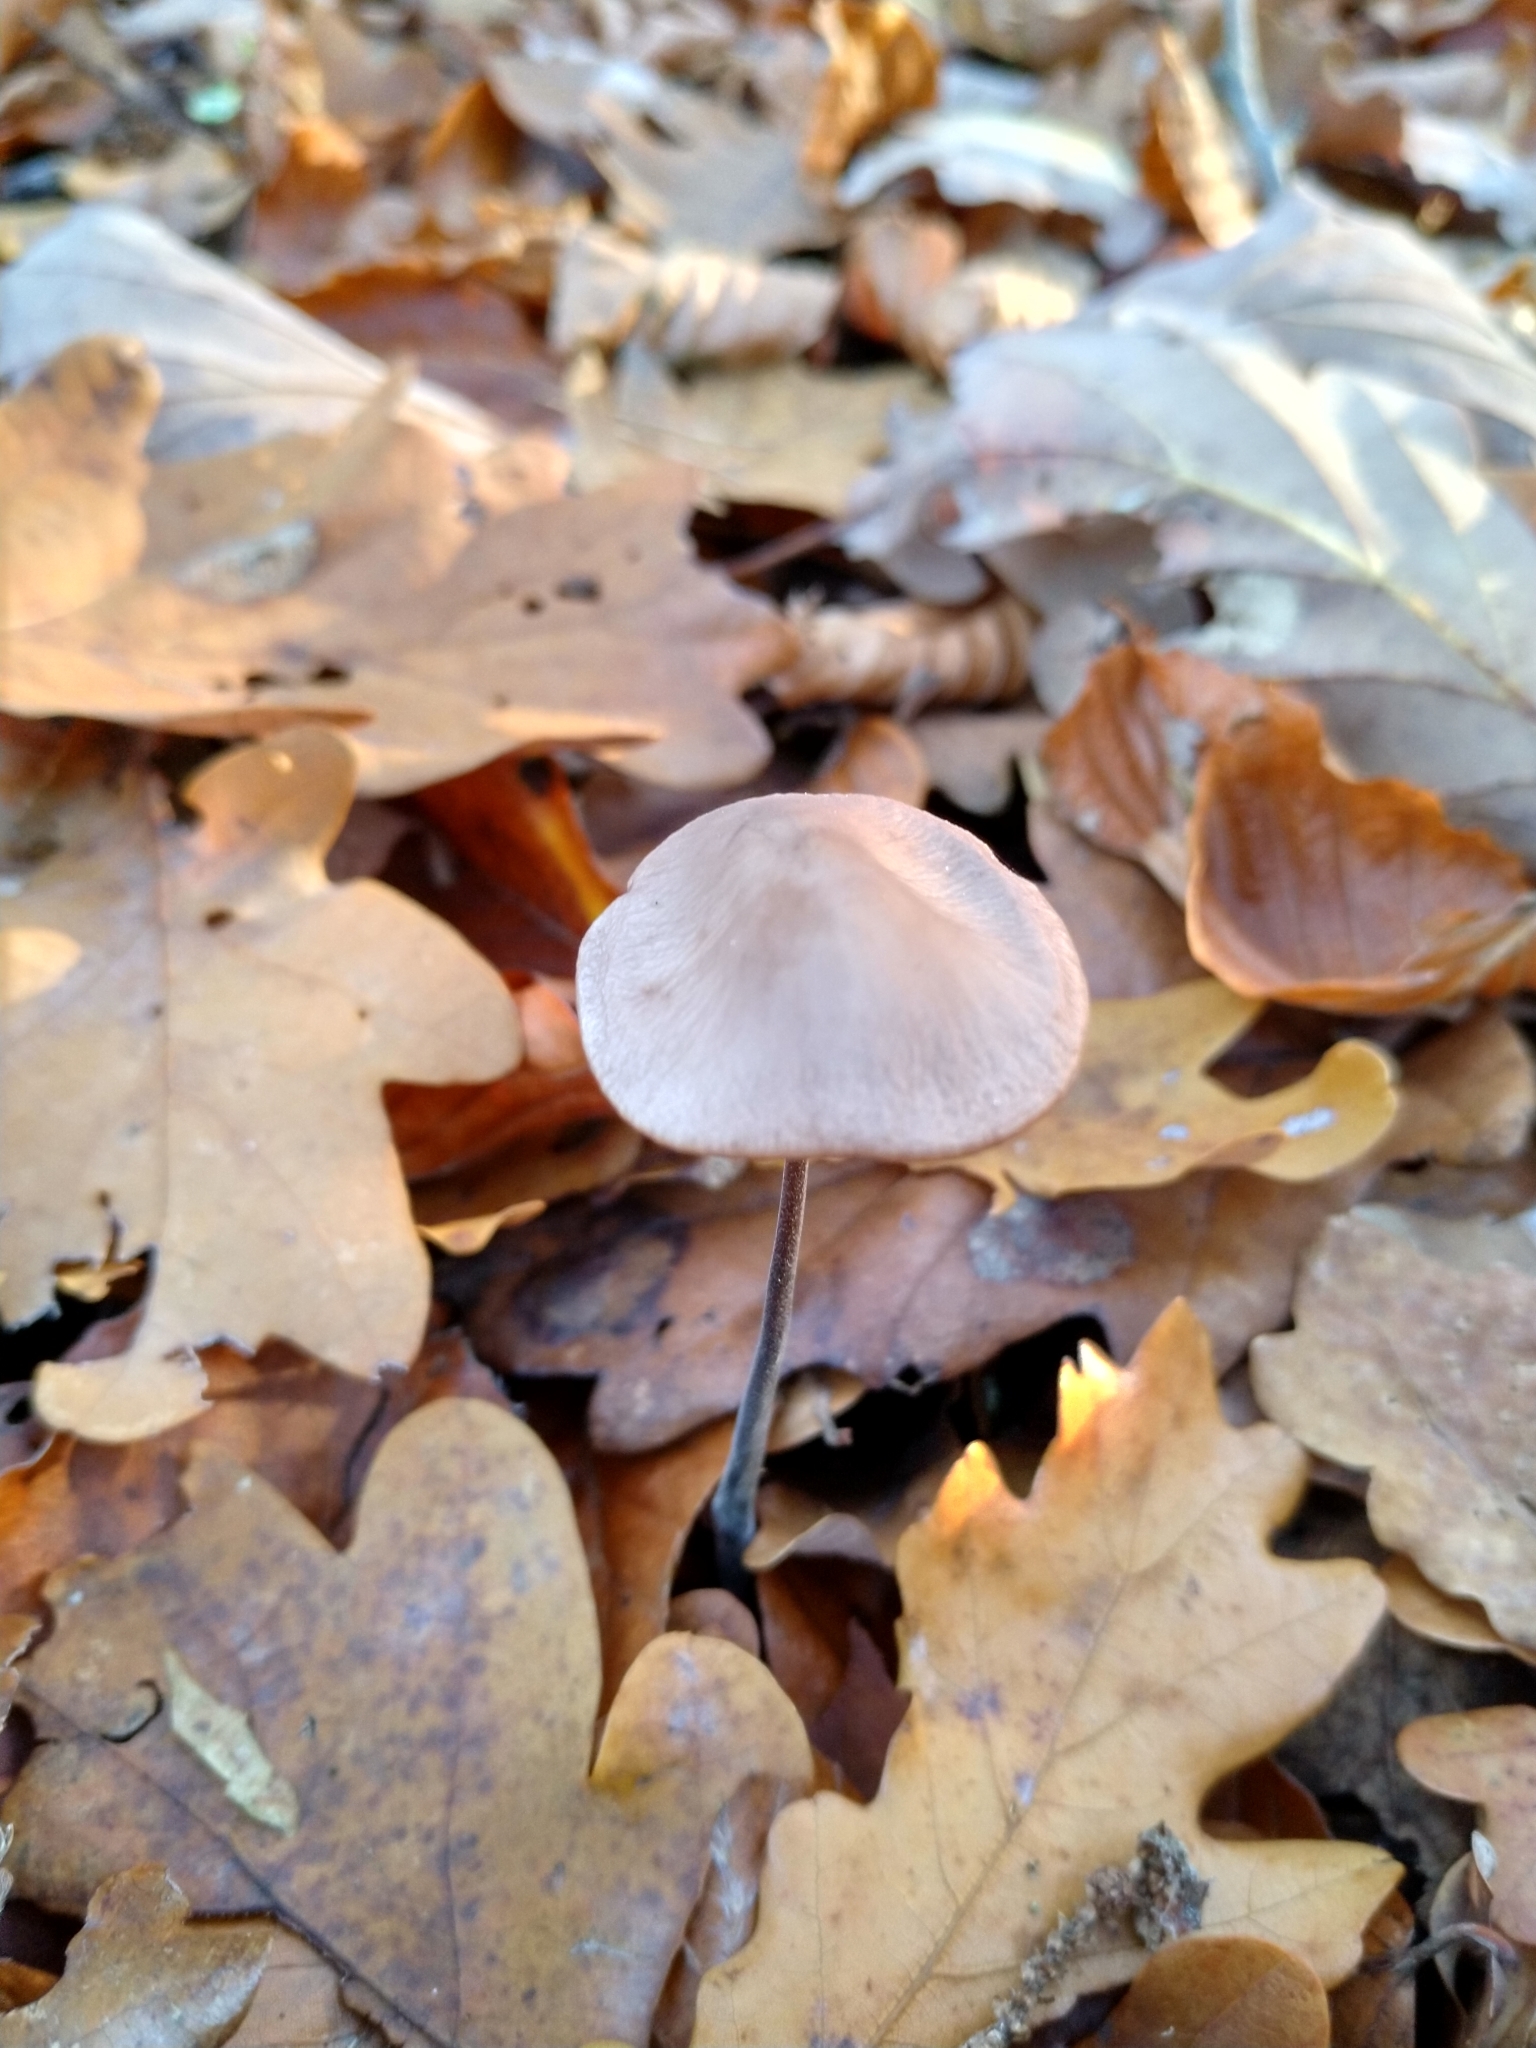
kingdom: Fungi
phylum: Basidiomycota
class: Agaricomycetes
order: Agaricales
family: Omphalotaceae
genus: Mycetinis
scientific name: Mycetinis alliaceus
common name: Garlic parachute
